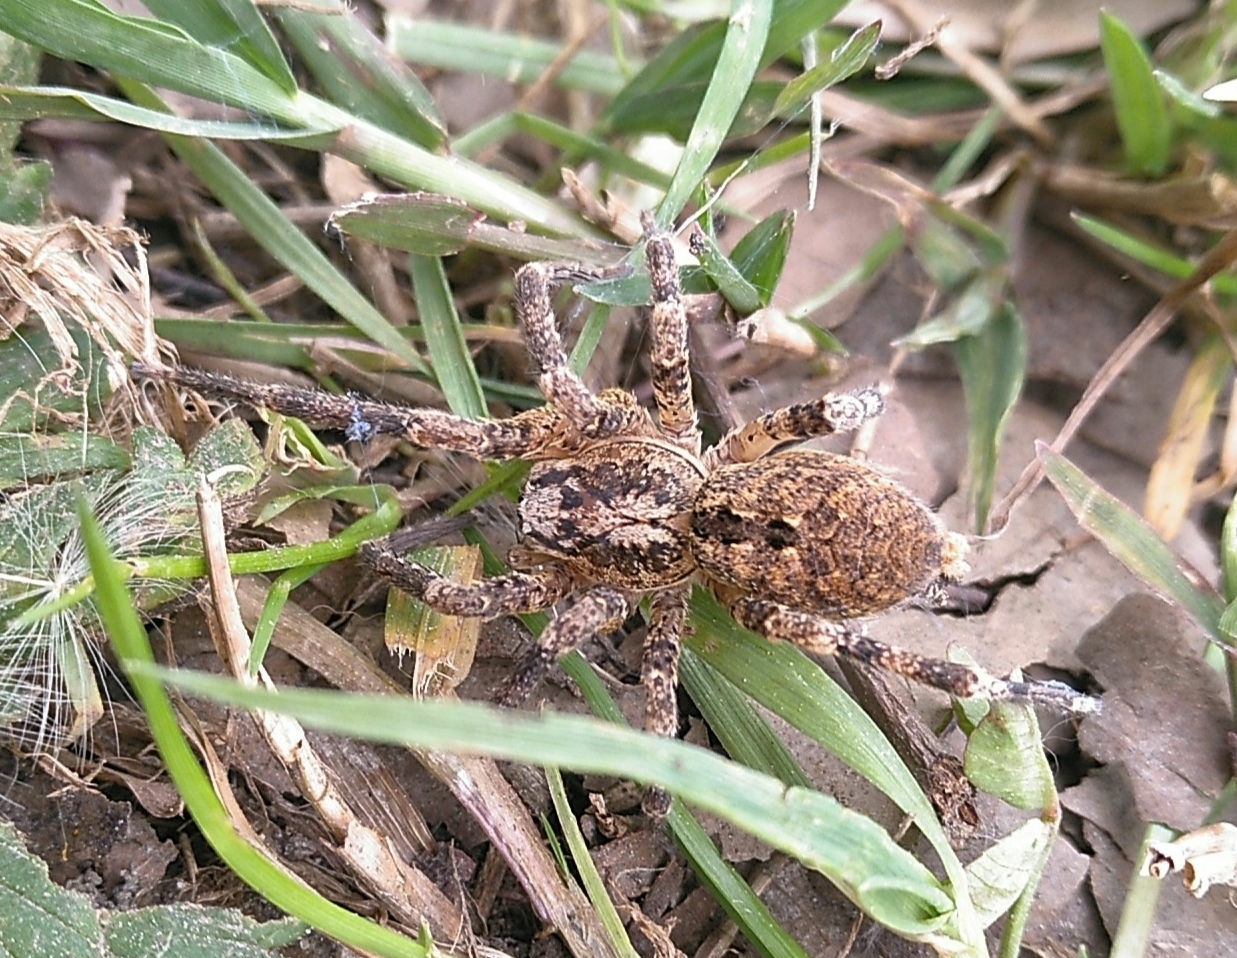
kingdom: Animalia
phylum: Arthropoda
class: Arachnida
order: Araneae
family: Zoropsidae
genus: Zoropsis
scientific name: Zoropsis spinimana
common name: Zoropsid spider
